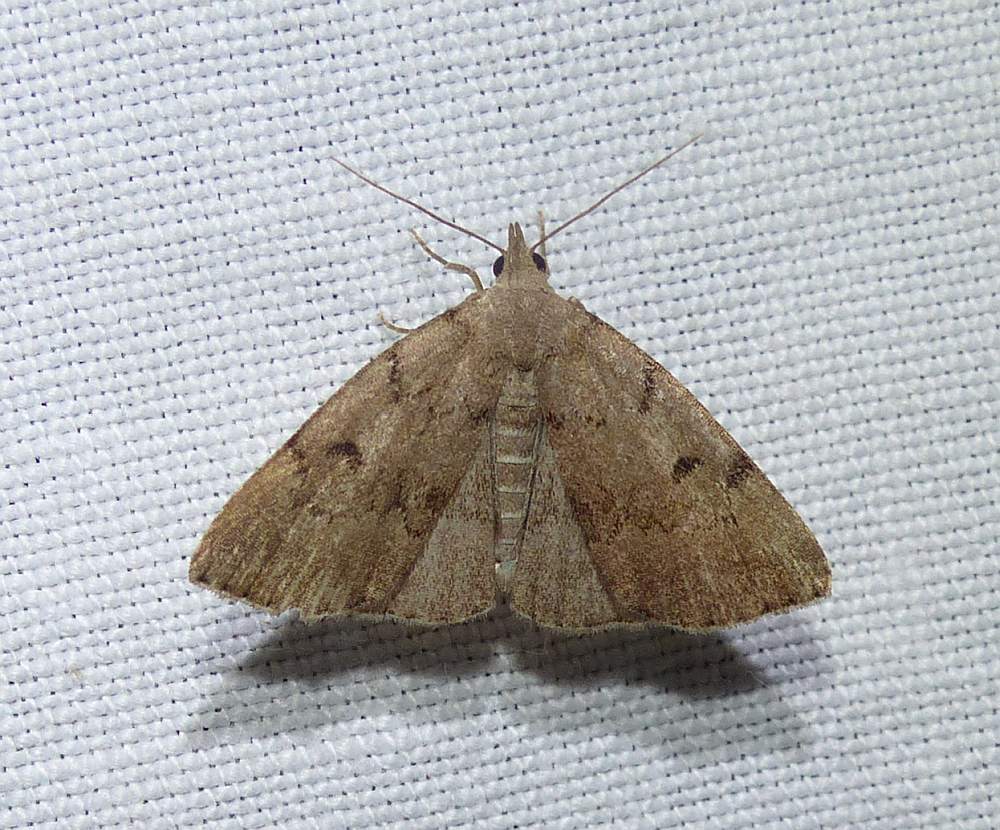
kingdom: Animalia
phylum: Arthropoda
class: Insecta
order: Lepidoptera
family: Erebidae
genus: Zanclognatha
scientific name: Zanclognatha dentata
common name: Toothed fan-foot
